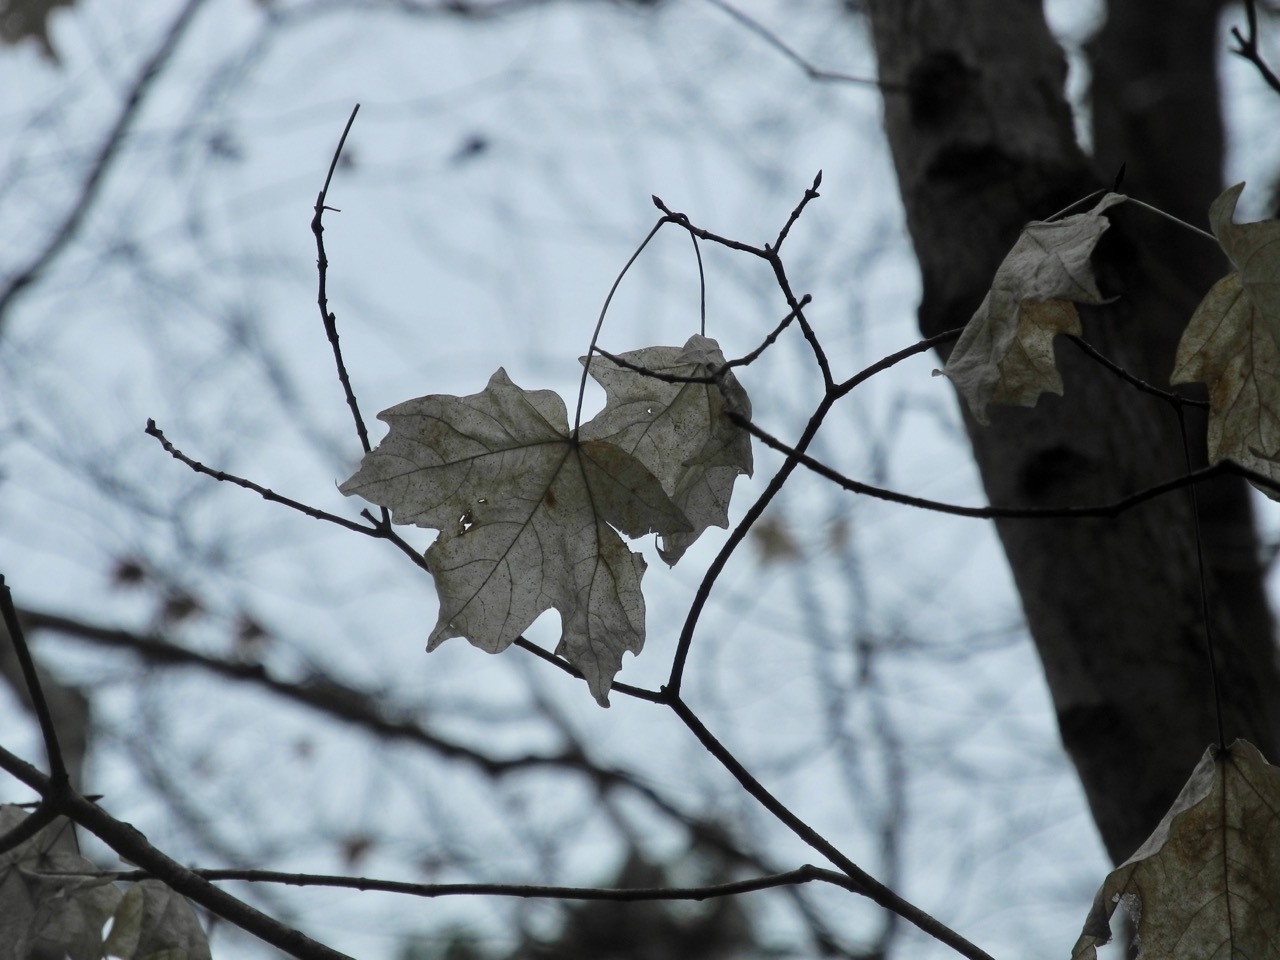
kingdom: Plantae
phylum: Tracheophyta
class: Magnoliopsida
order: Sapindales
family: Sapindaceae
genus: Acer
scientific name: Acer floridanum
